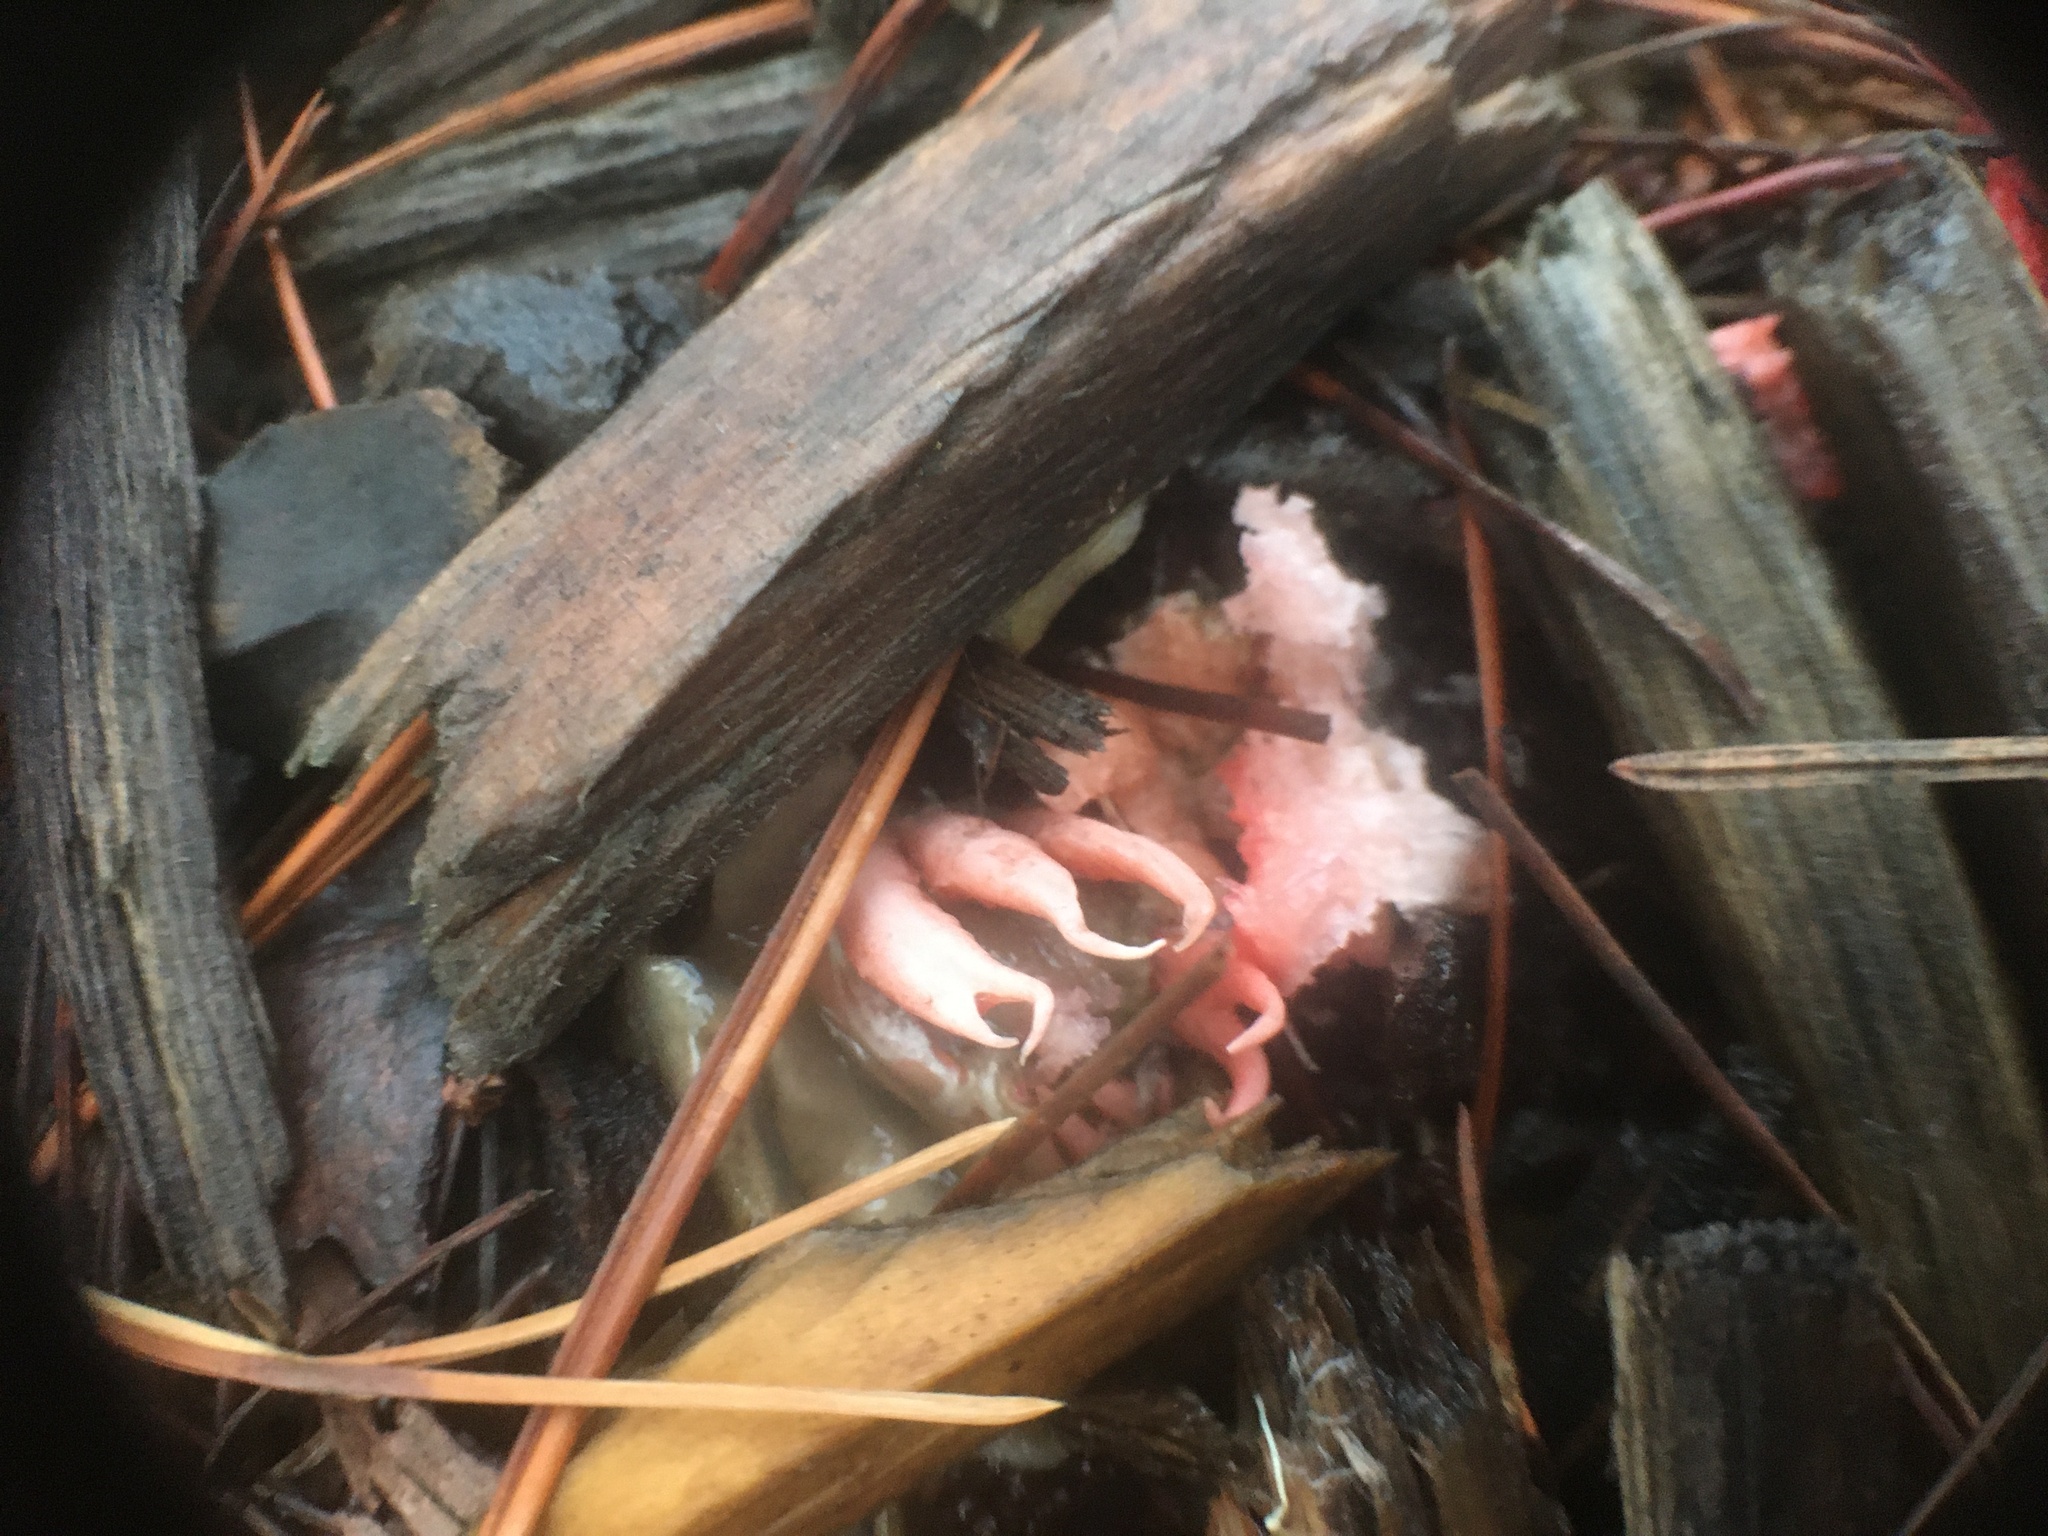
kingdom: Fungi
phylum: Basidiomycota
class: Agaricomycetes
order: Phallales
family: Phallaceae
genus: Aseroe
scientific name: Aseroe rubra
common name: Starfish fungus
